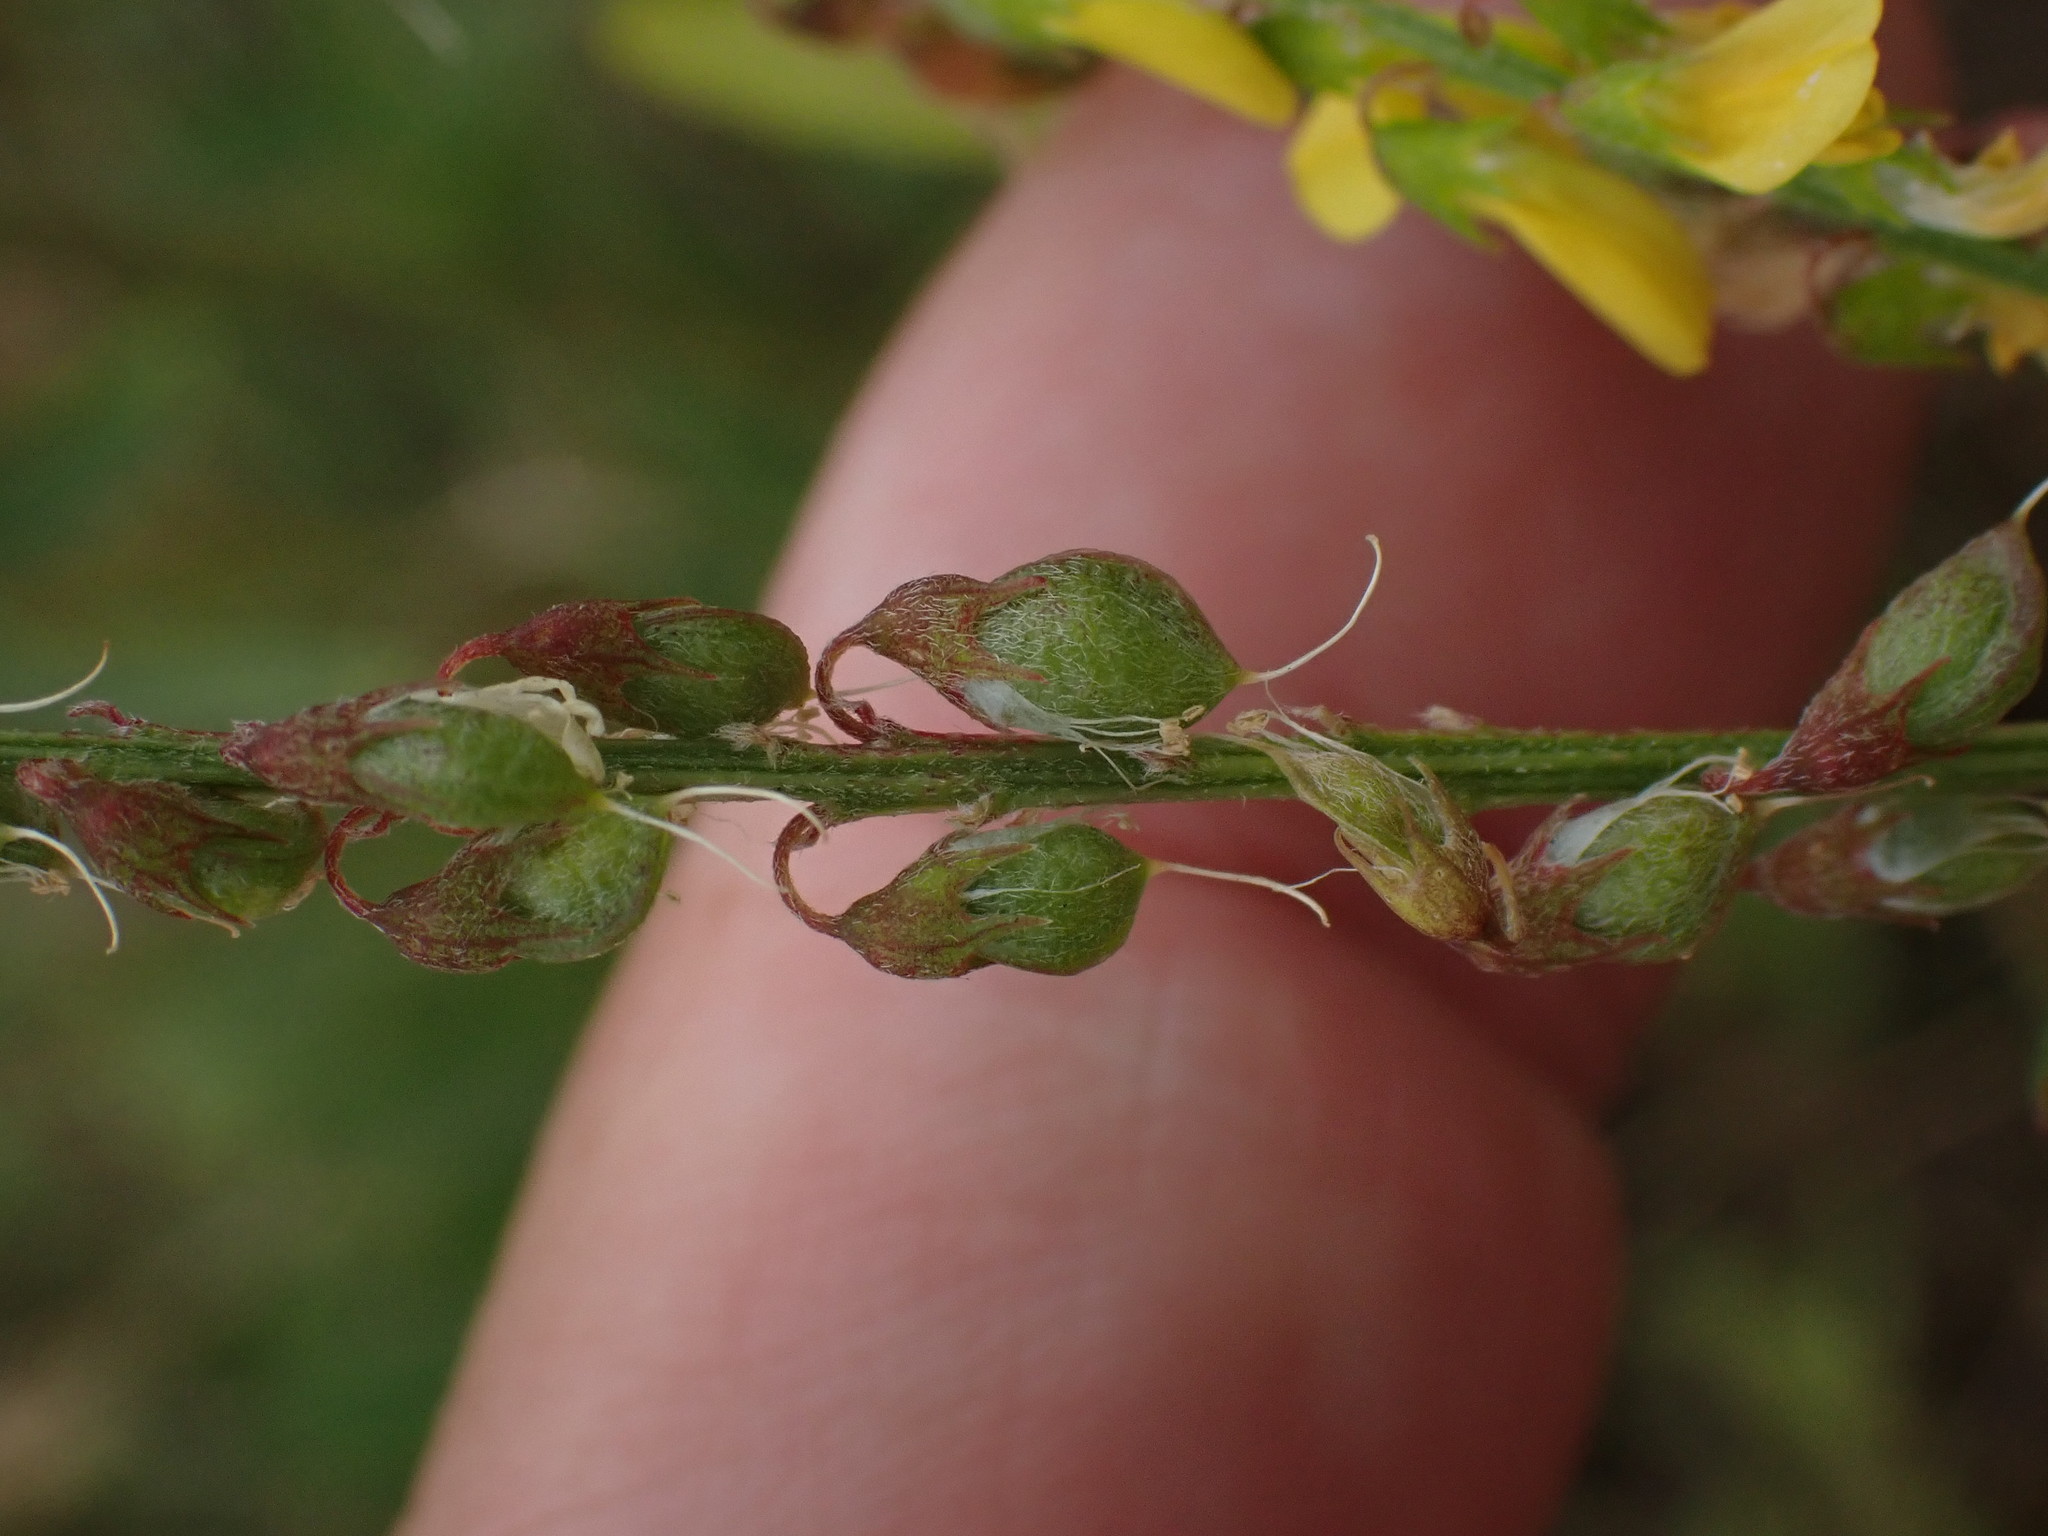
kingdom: Plantae
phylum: Tracheophyta
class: Magnoliopsida
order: Fabales
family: Fabaceae
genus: Melilotus
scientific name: Melilotus altissimus
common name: Tall melilot
